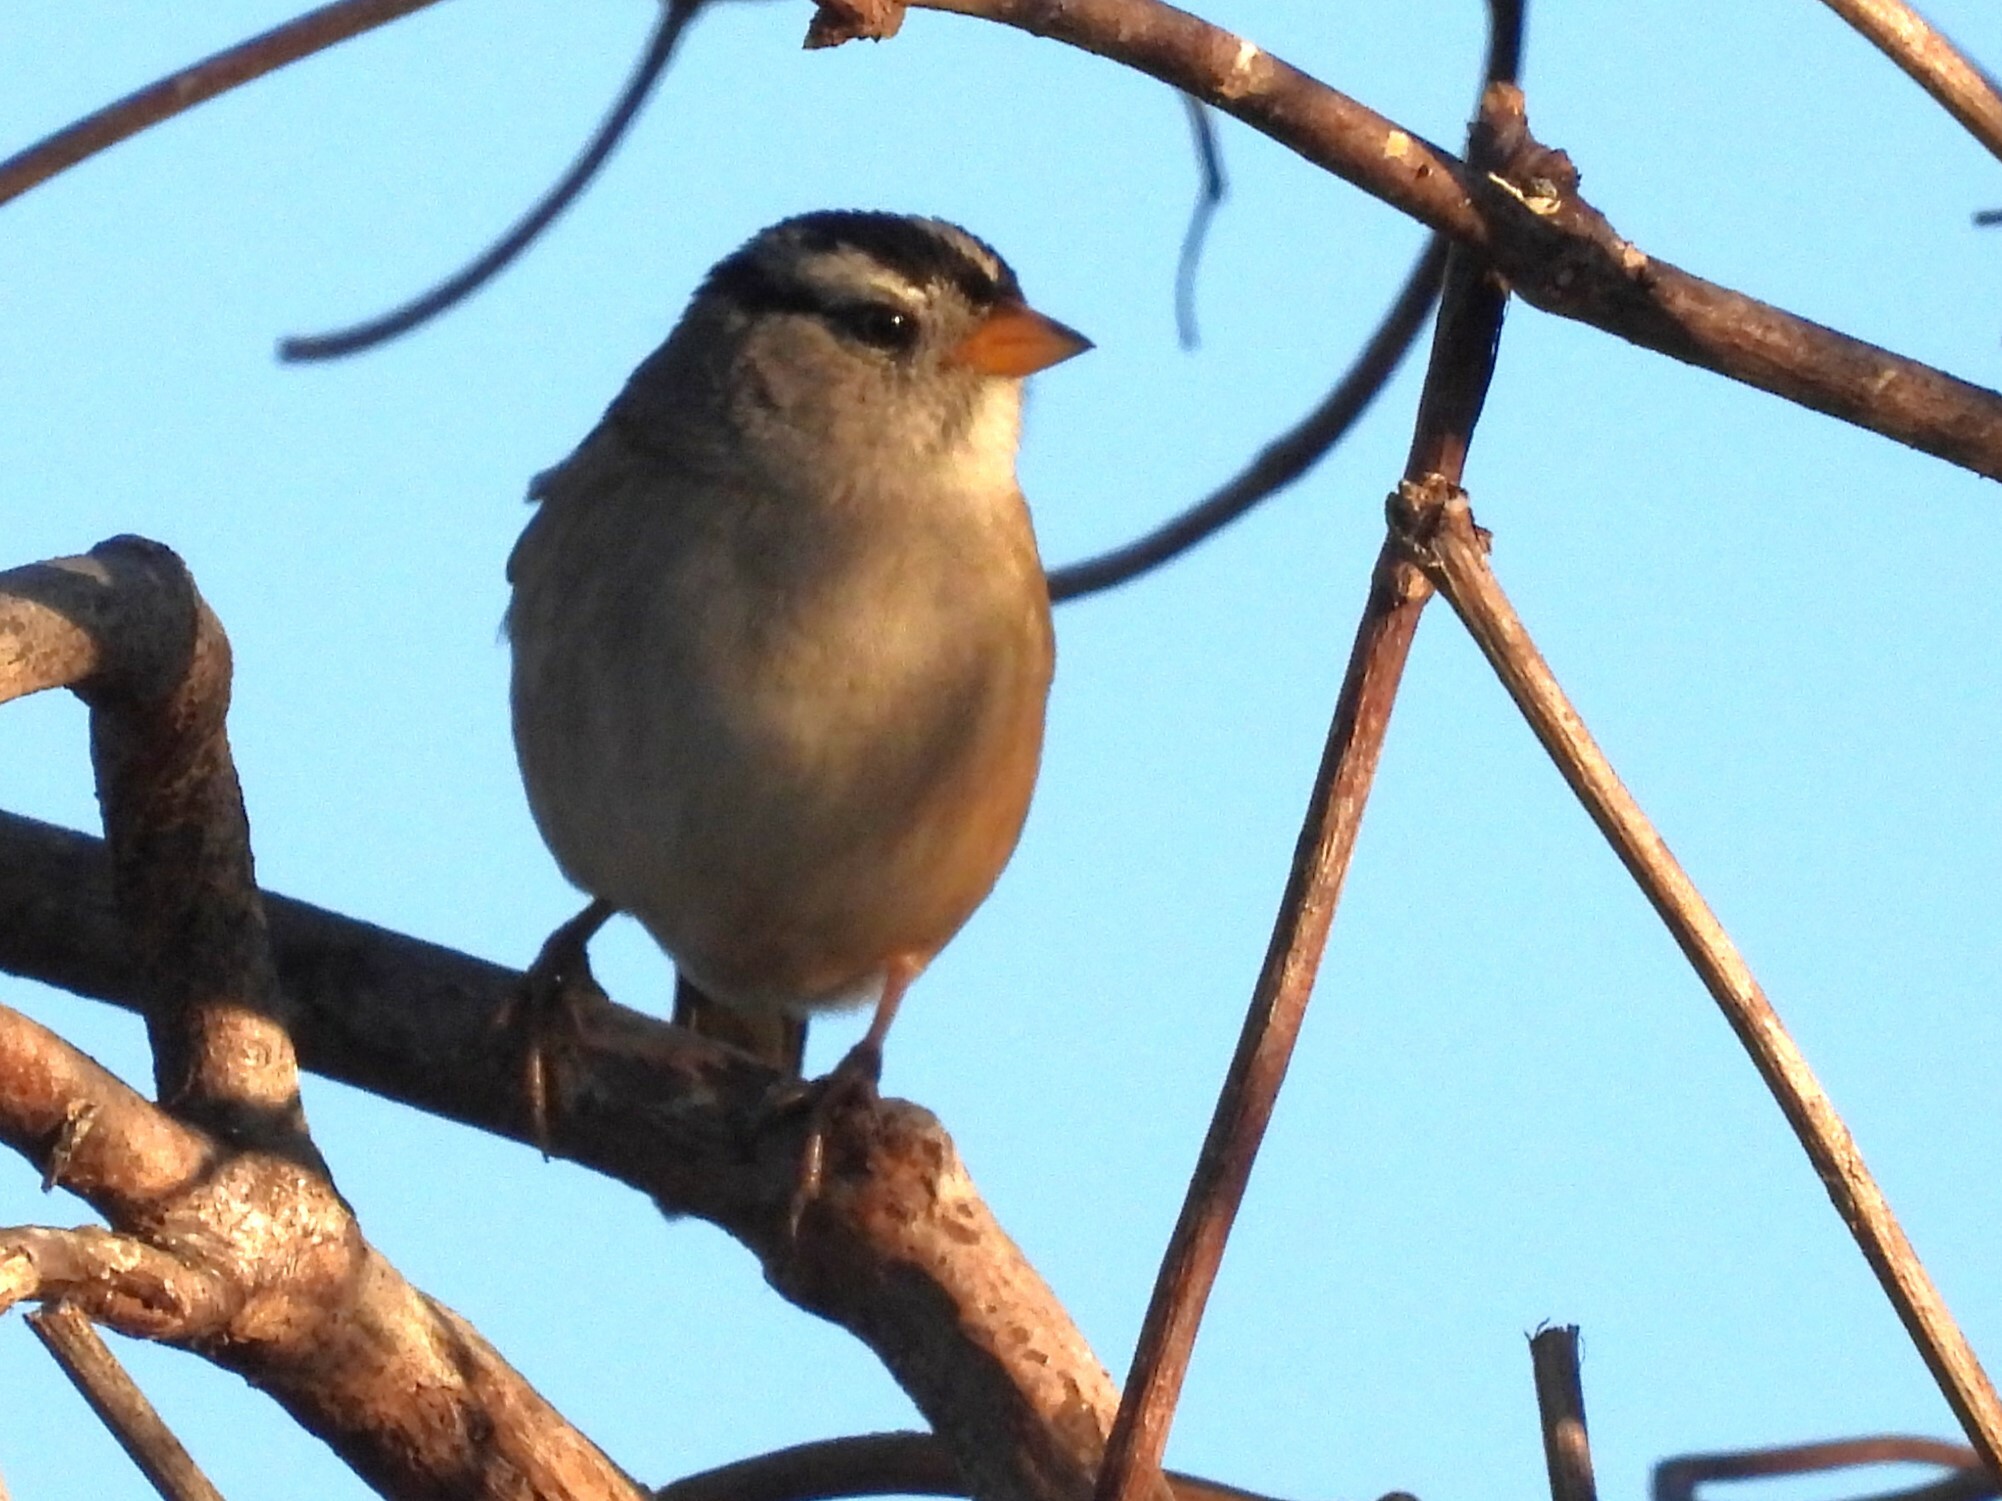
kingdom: Animalia
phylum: Chordata
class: Aves
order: Passeriformes
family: Passerellidae
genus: Zonotrichia
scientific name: Zonotrichia leucophrys
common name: White-crowned sparrow
